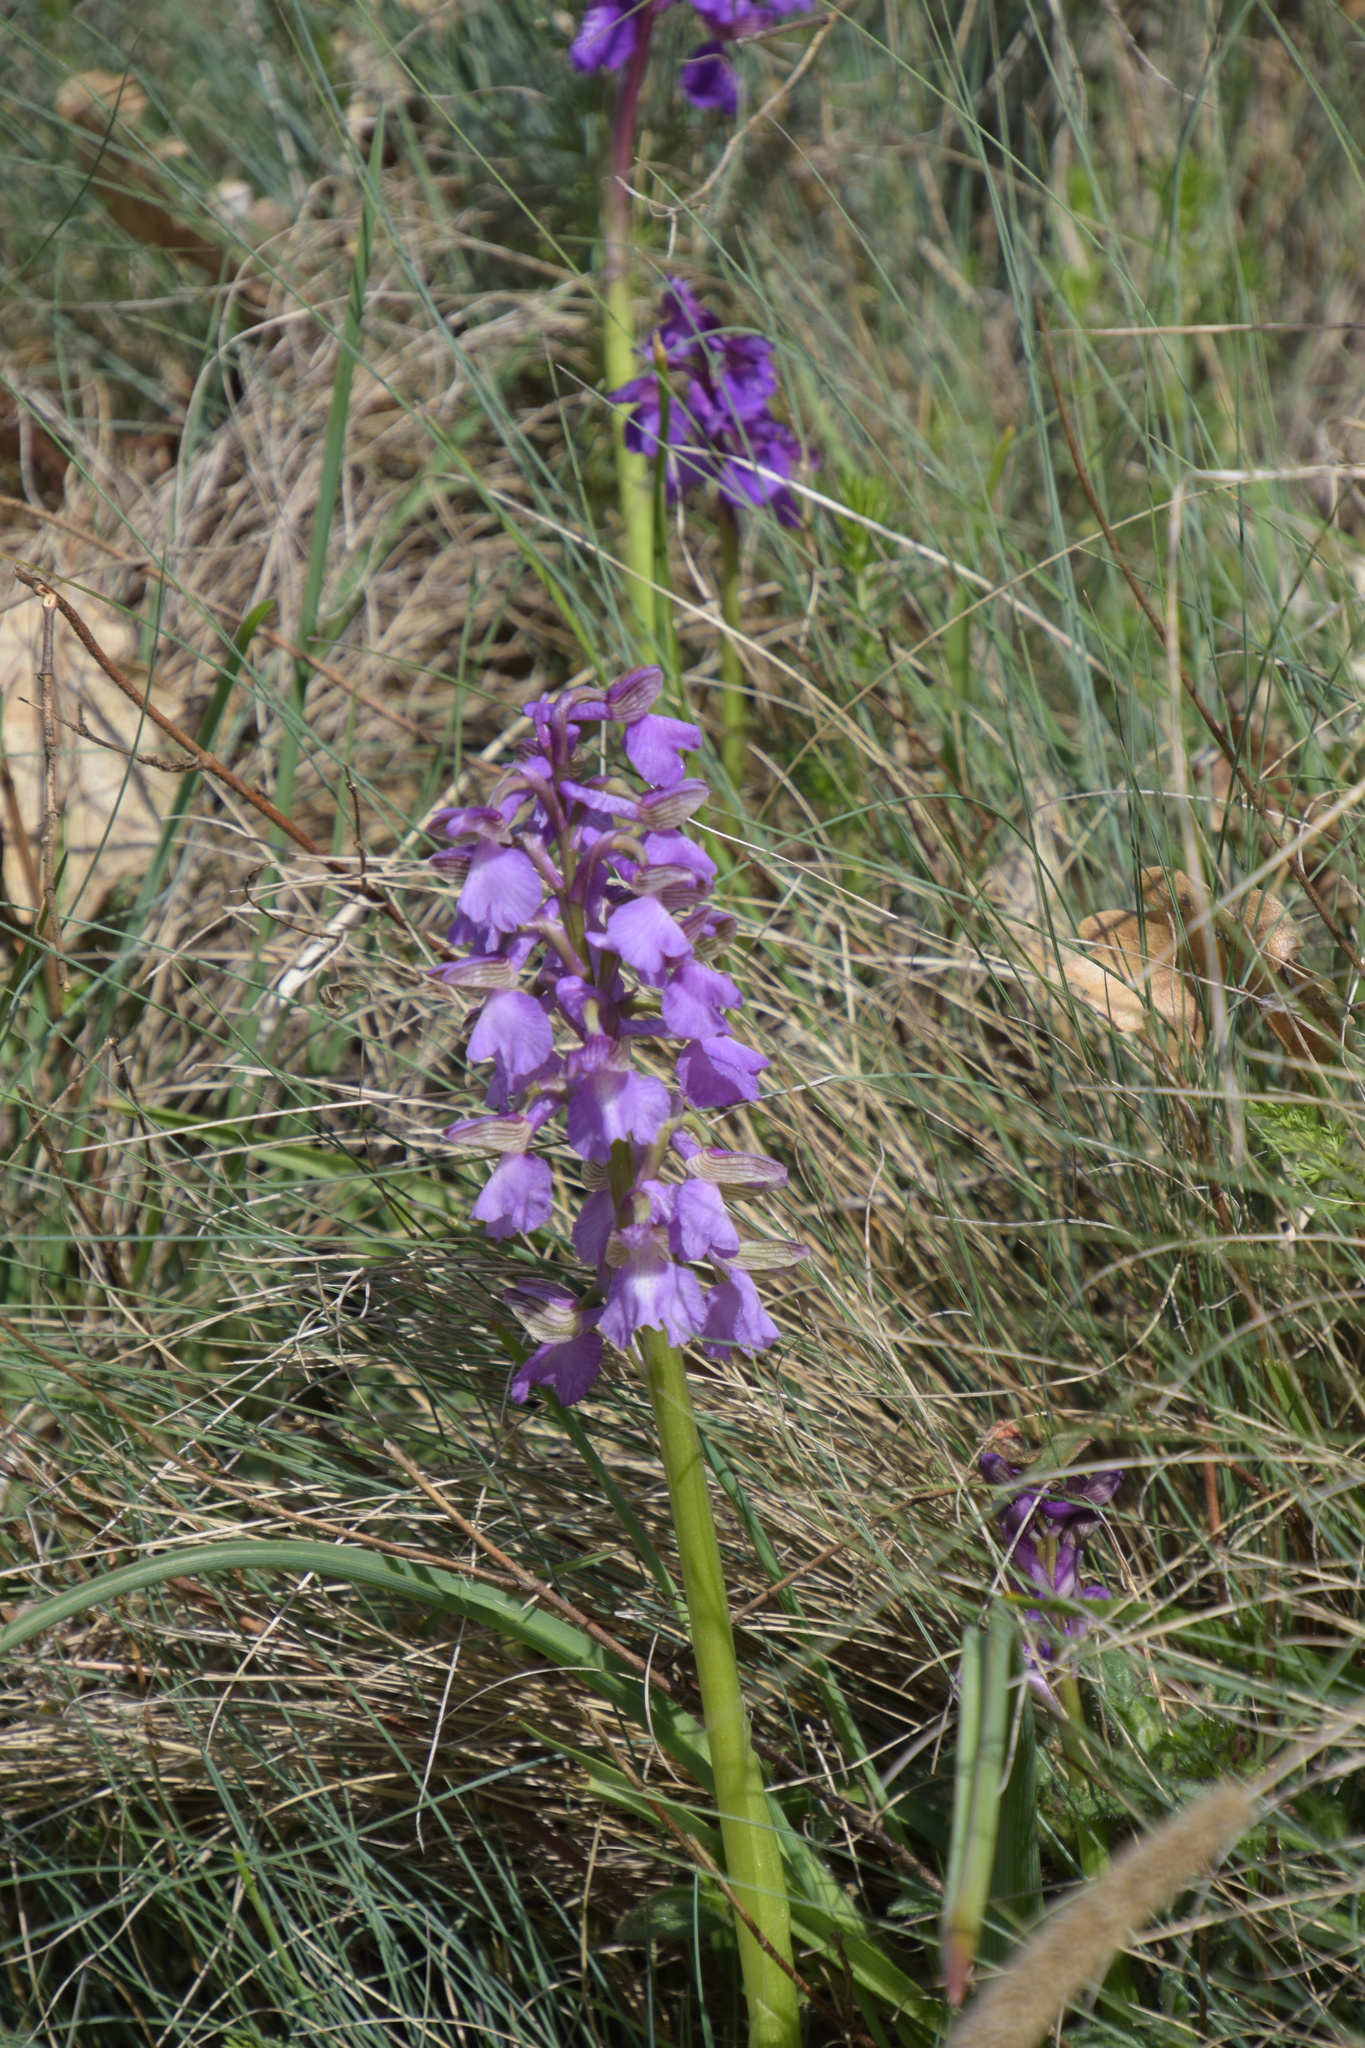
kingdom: Plantae
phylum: Tracheophyta
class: Liliopsida
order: Asparagales
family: Orchidaceae
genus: Anacamptis
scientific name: Anacamptis morio
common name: Green-winged orchid
